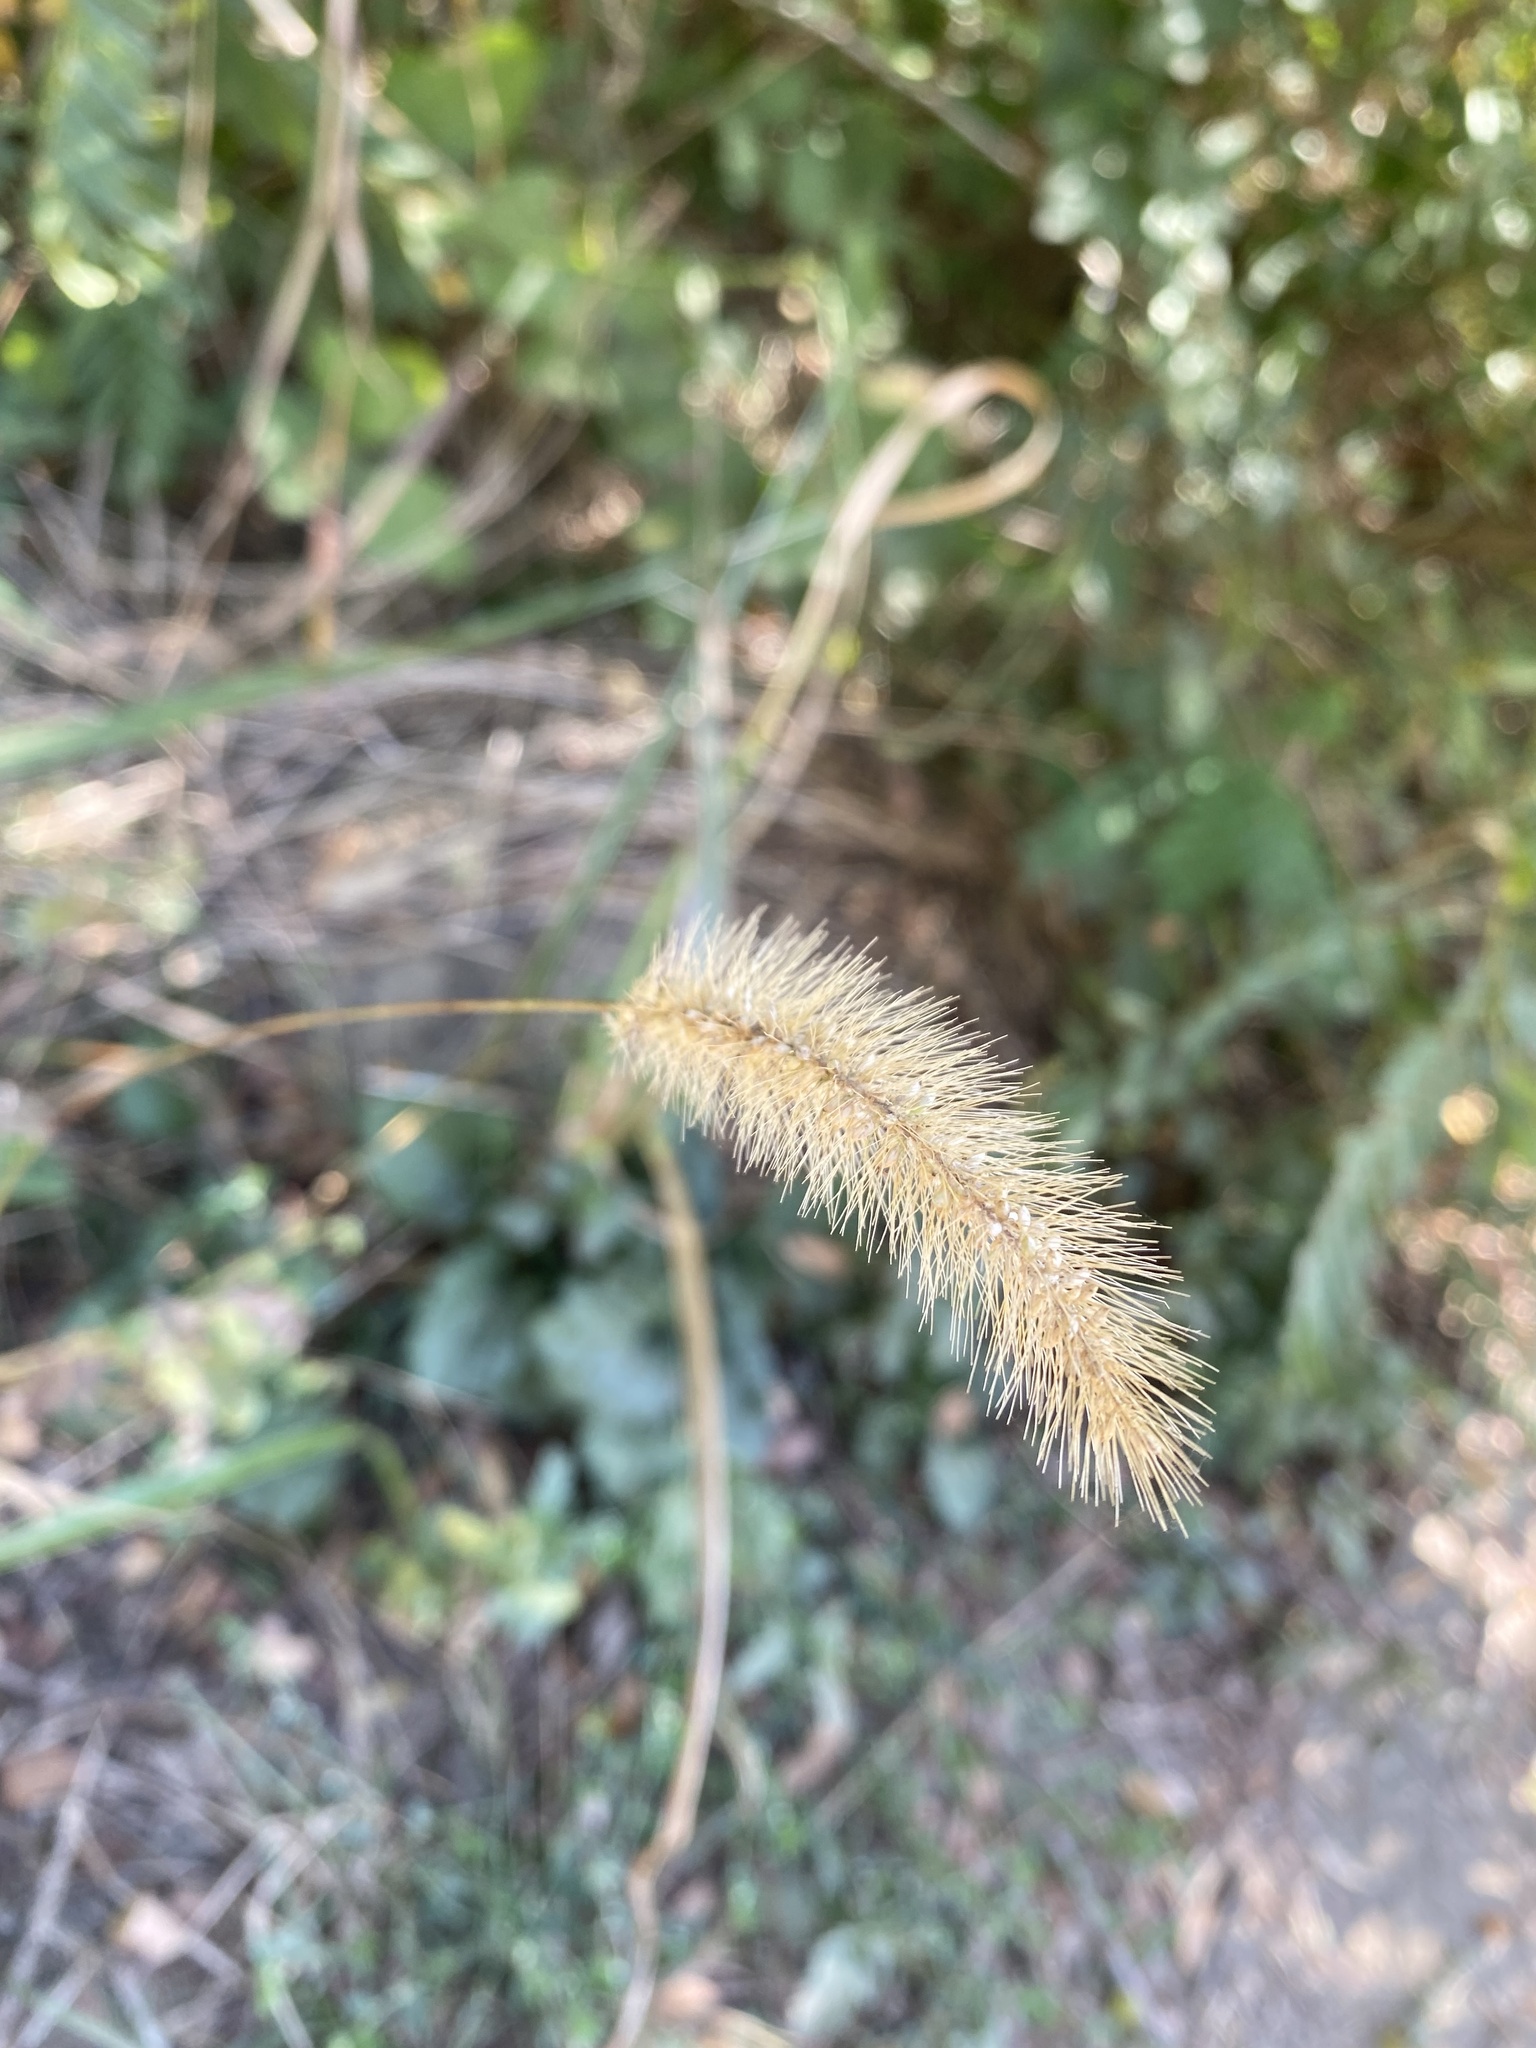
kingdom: Plantae
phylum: Tracheophyta
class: Liliopsida
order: Poales
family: Poaceae
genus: Setaria
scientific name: Setaria viridis
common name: Green bristlegrass
